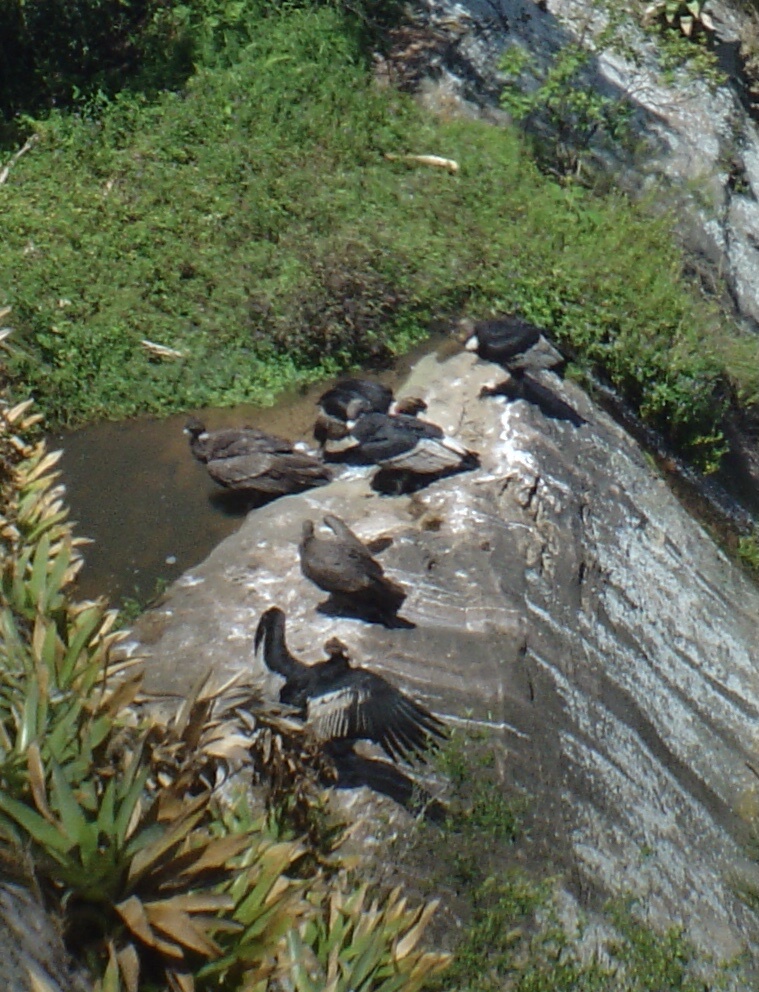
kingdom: Animalia
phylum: Chordata
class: Aves
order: Accipitriformes
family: Cathartidae
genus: Vultur
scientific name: Vultur gryphus
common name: Andean condor
